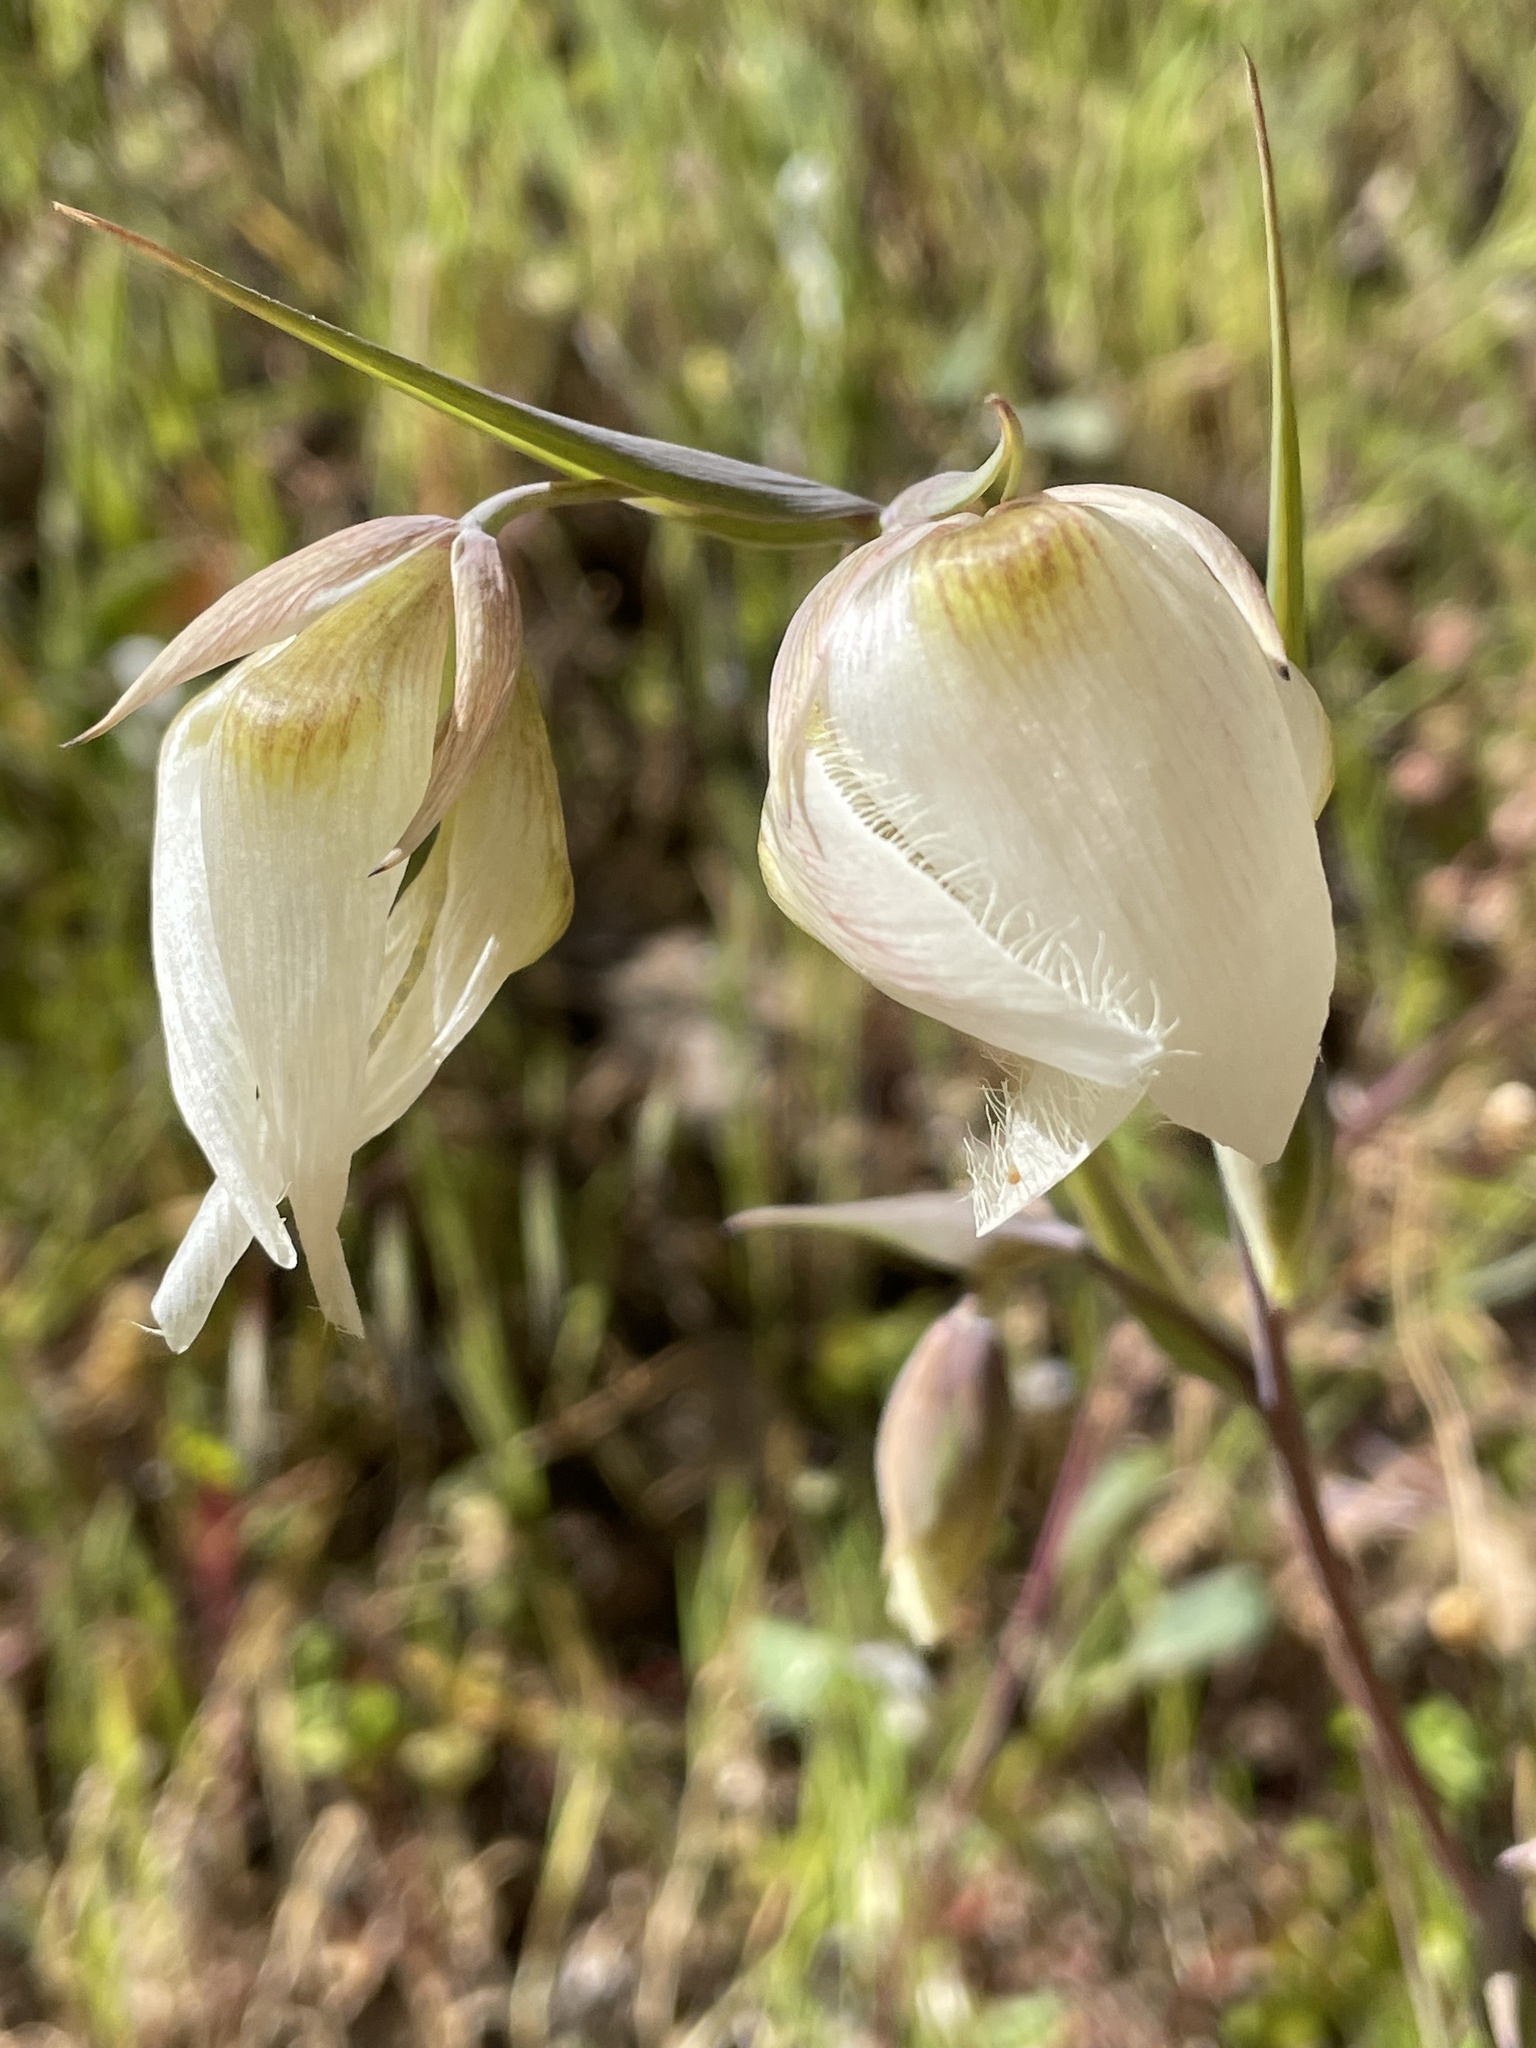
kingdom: Plantae
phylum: Tracheophyta
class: Liliopsida
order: Liliales
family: Liliaceae
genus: Calochortus
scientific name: Calochortus albus
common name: Fairy-lantern
